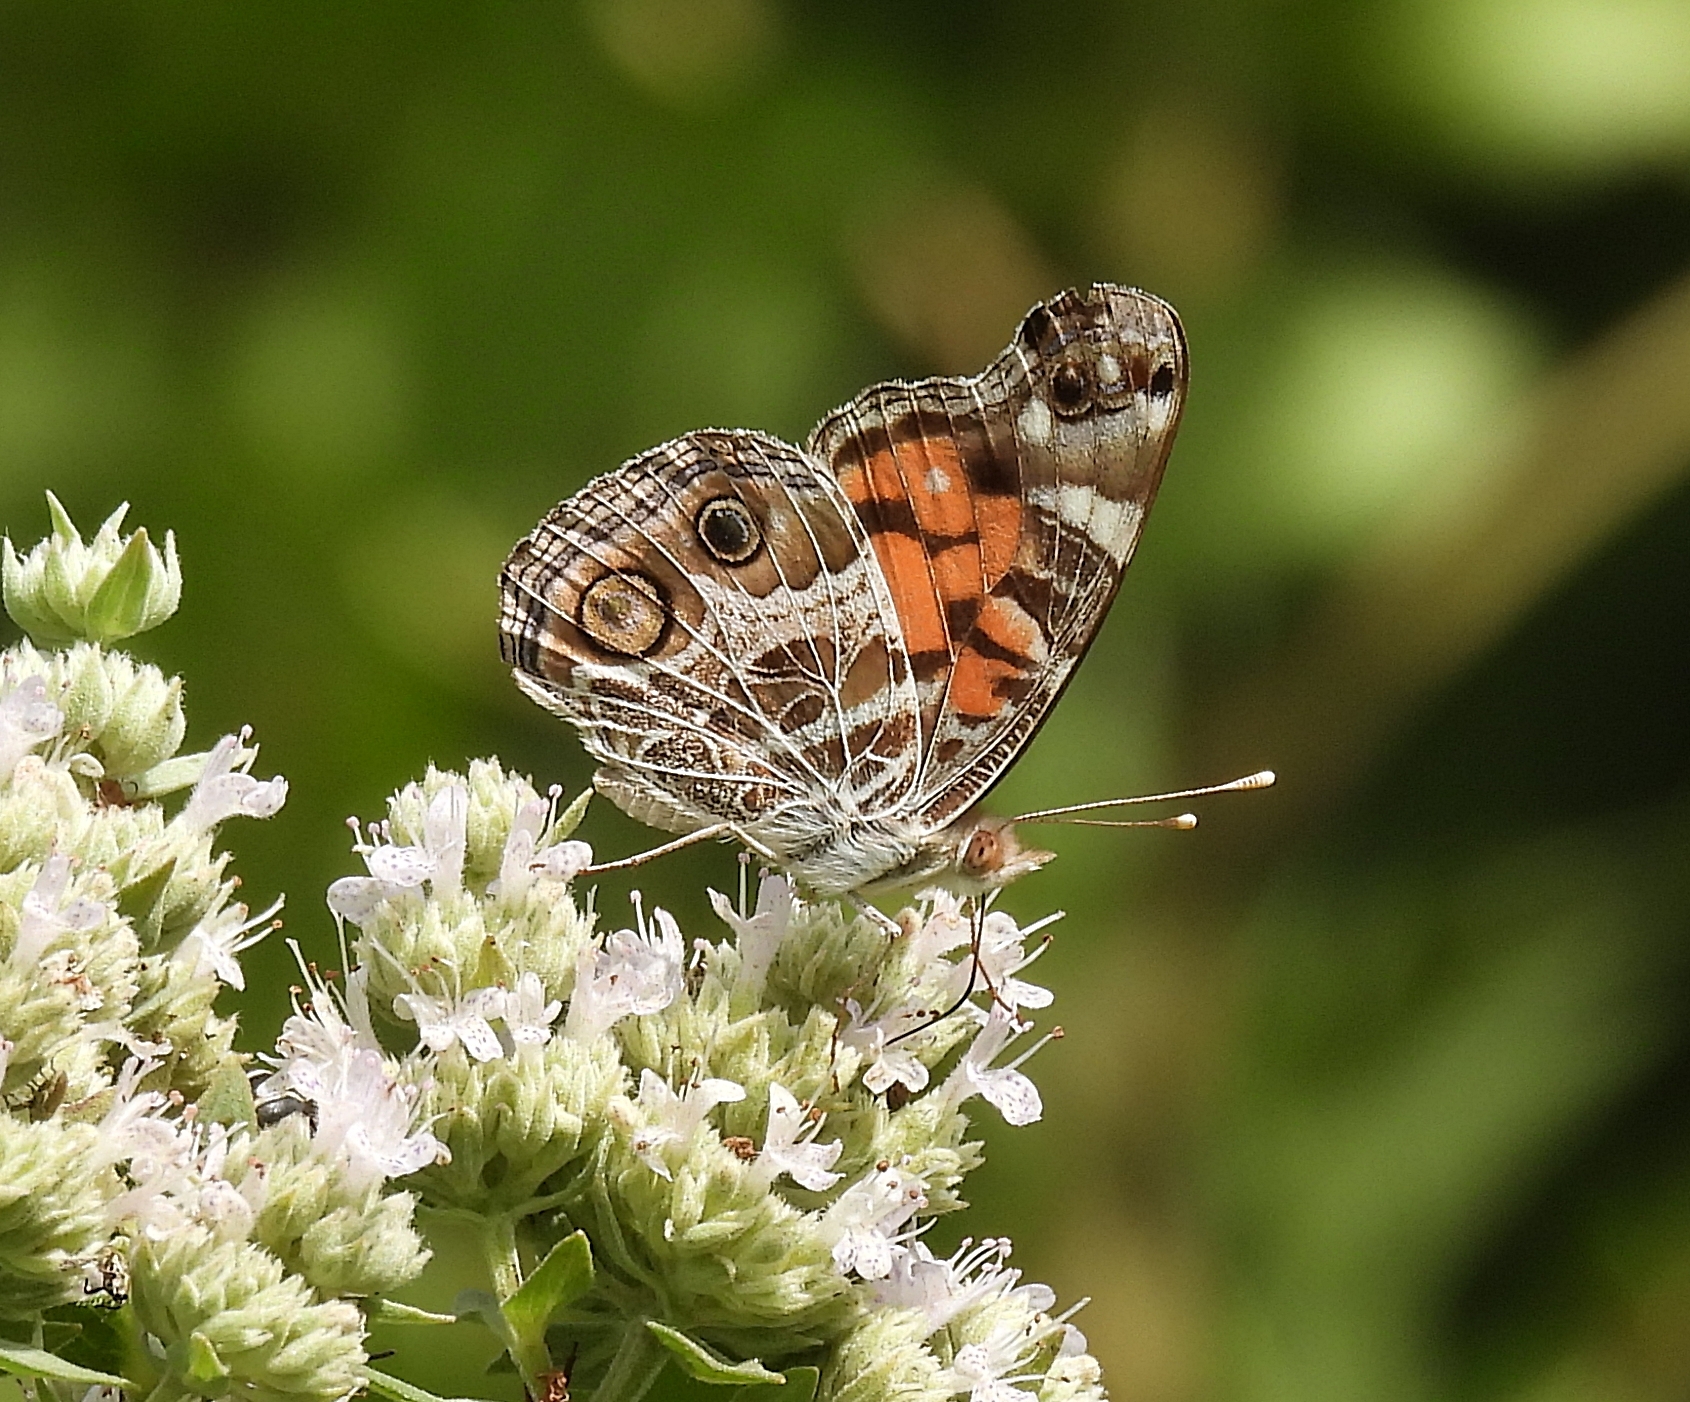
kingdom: Animalia
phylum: Arthropoda
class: Insecta
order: Lepidoptera
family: Nymphalidae
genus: Vanessa
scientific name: Vanessa virginiensis
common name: American lady
